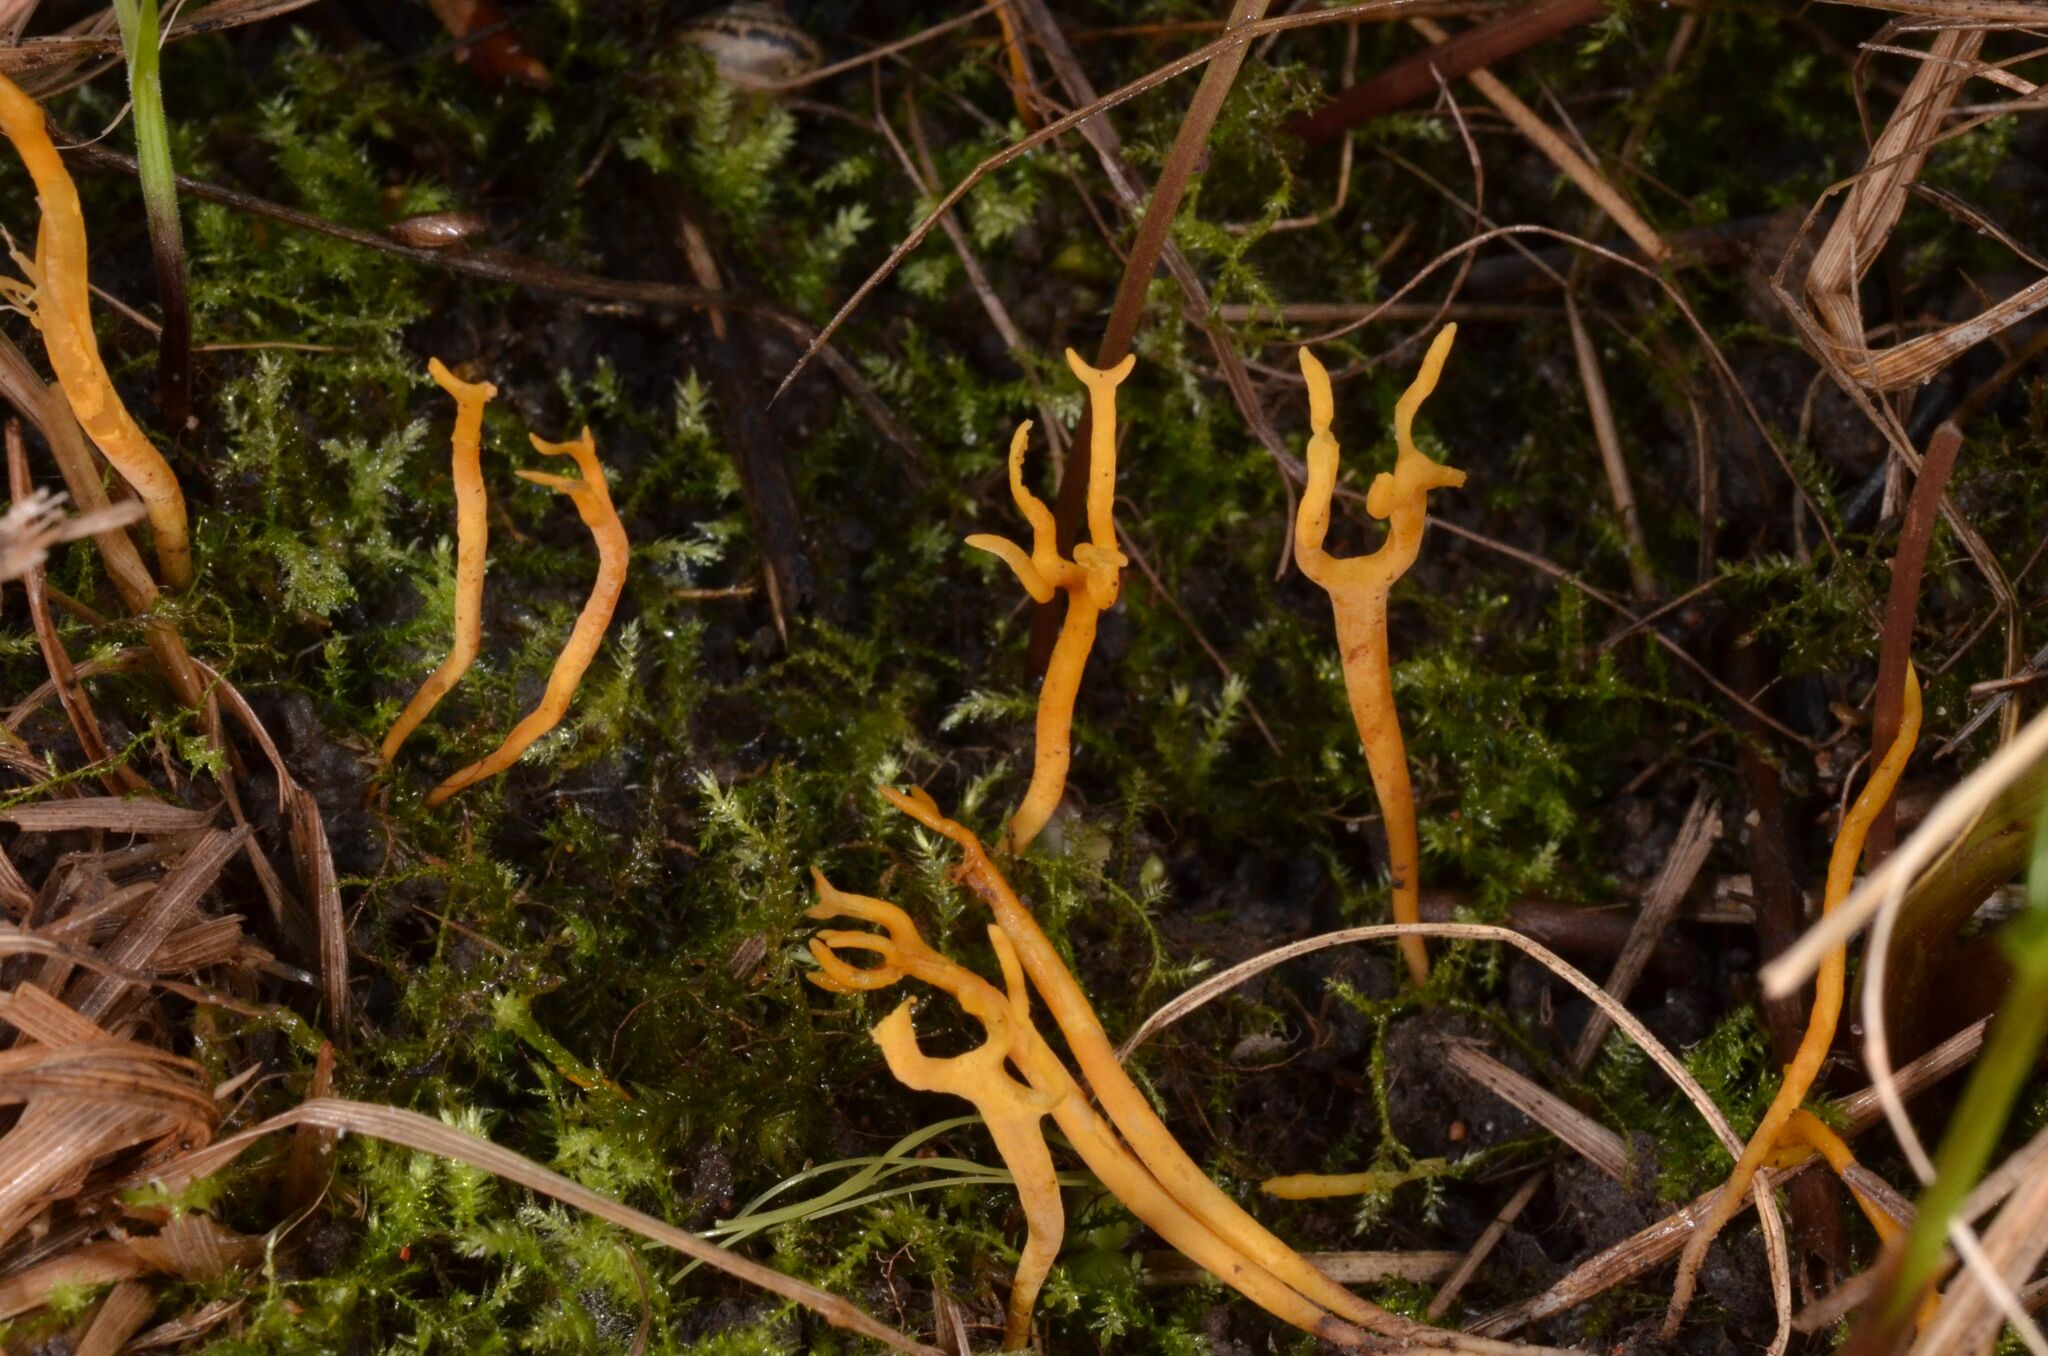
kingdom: Fungi
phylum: Basidiomycota
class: Agaricomycetes
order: Agaricales
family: Clavariaceae
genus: Ramariopsis
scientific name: Ramariopsis crocea
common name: Orange coral
